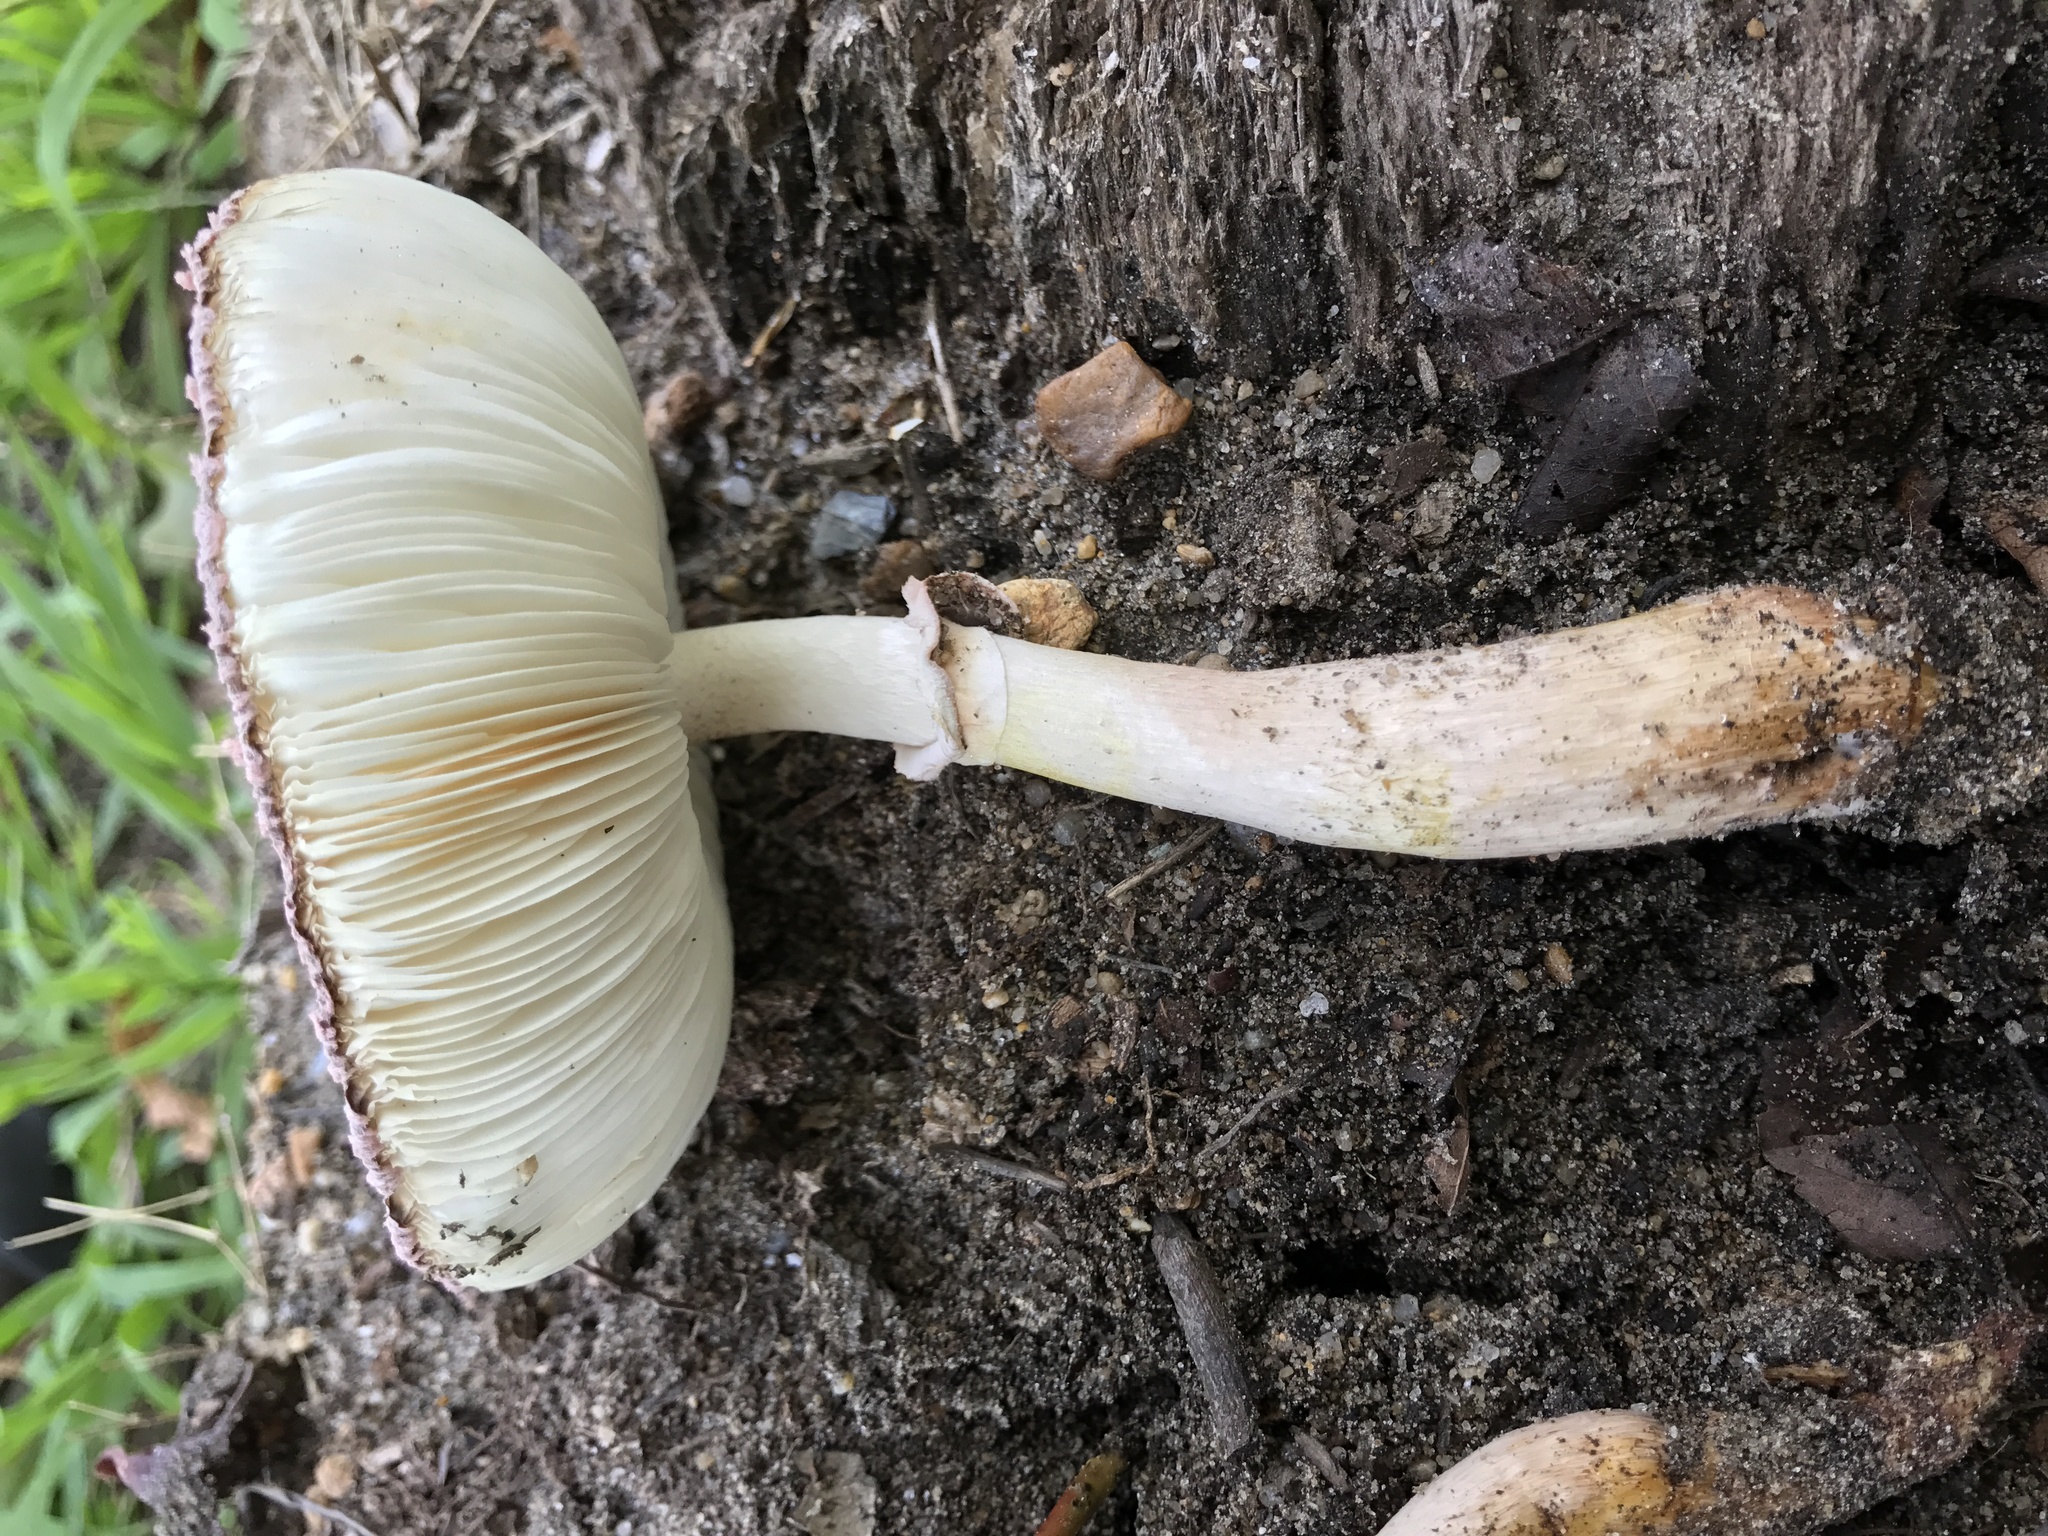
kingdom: Fungi
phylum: Basidiomycota
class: Agaricomycetes
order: Agaricales
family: Agaricaceae
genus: Leucoagaricus
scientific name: Leucoagaricus americanus
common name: Reddening lepiota
